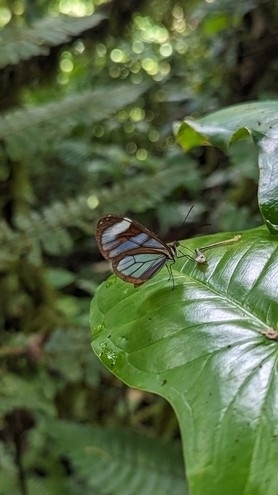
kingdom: Animalia
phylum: Arthropoda
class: Insecta
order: Lepidoptera
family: Nymphalidae
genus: Ithomia
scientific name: Ithomia diasia
